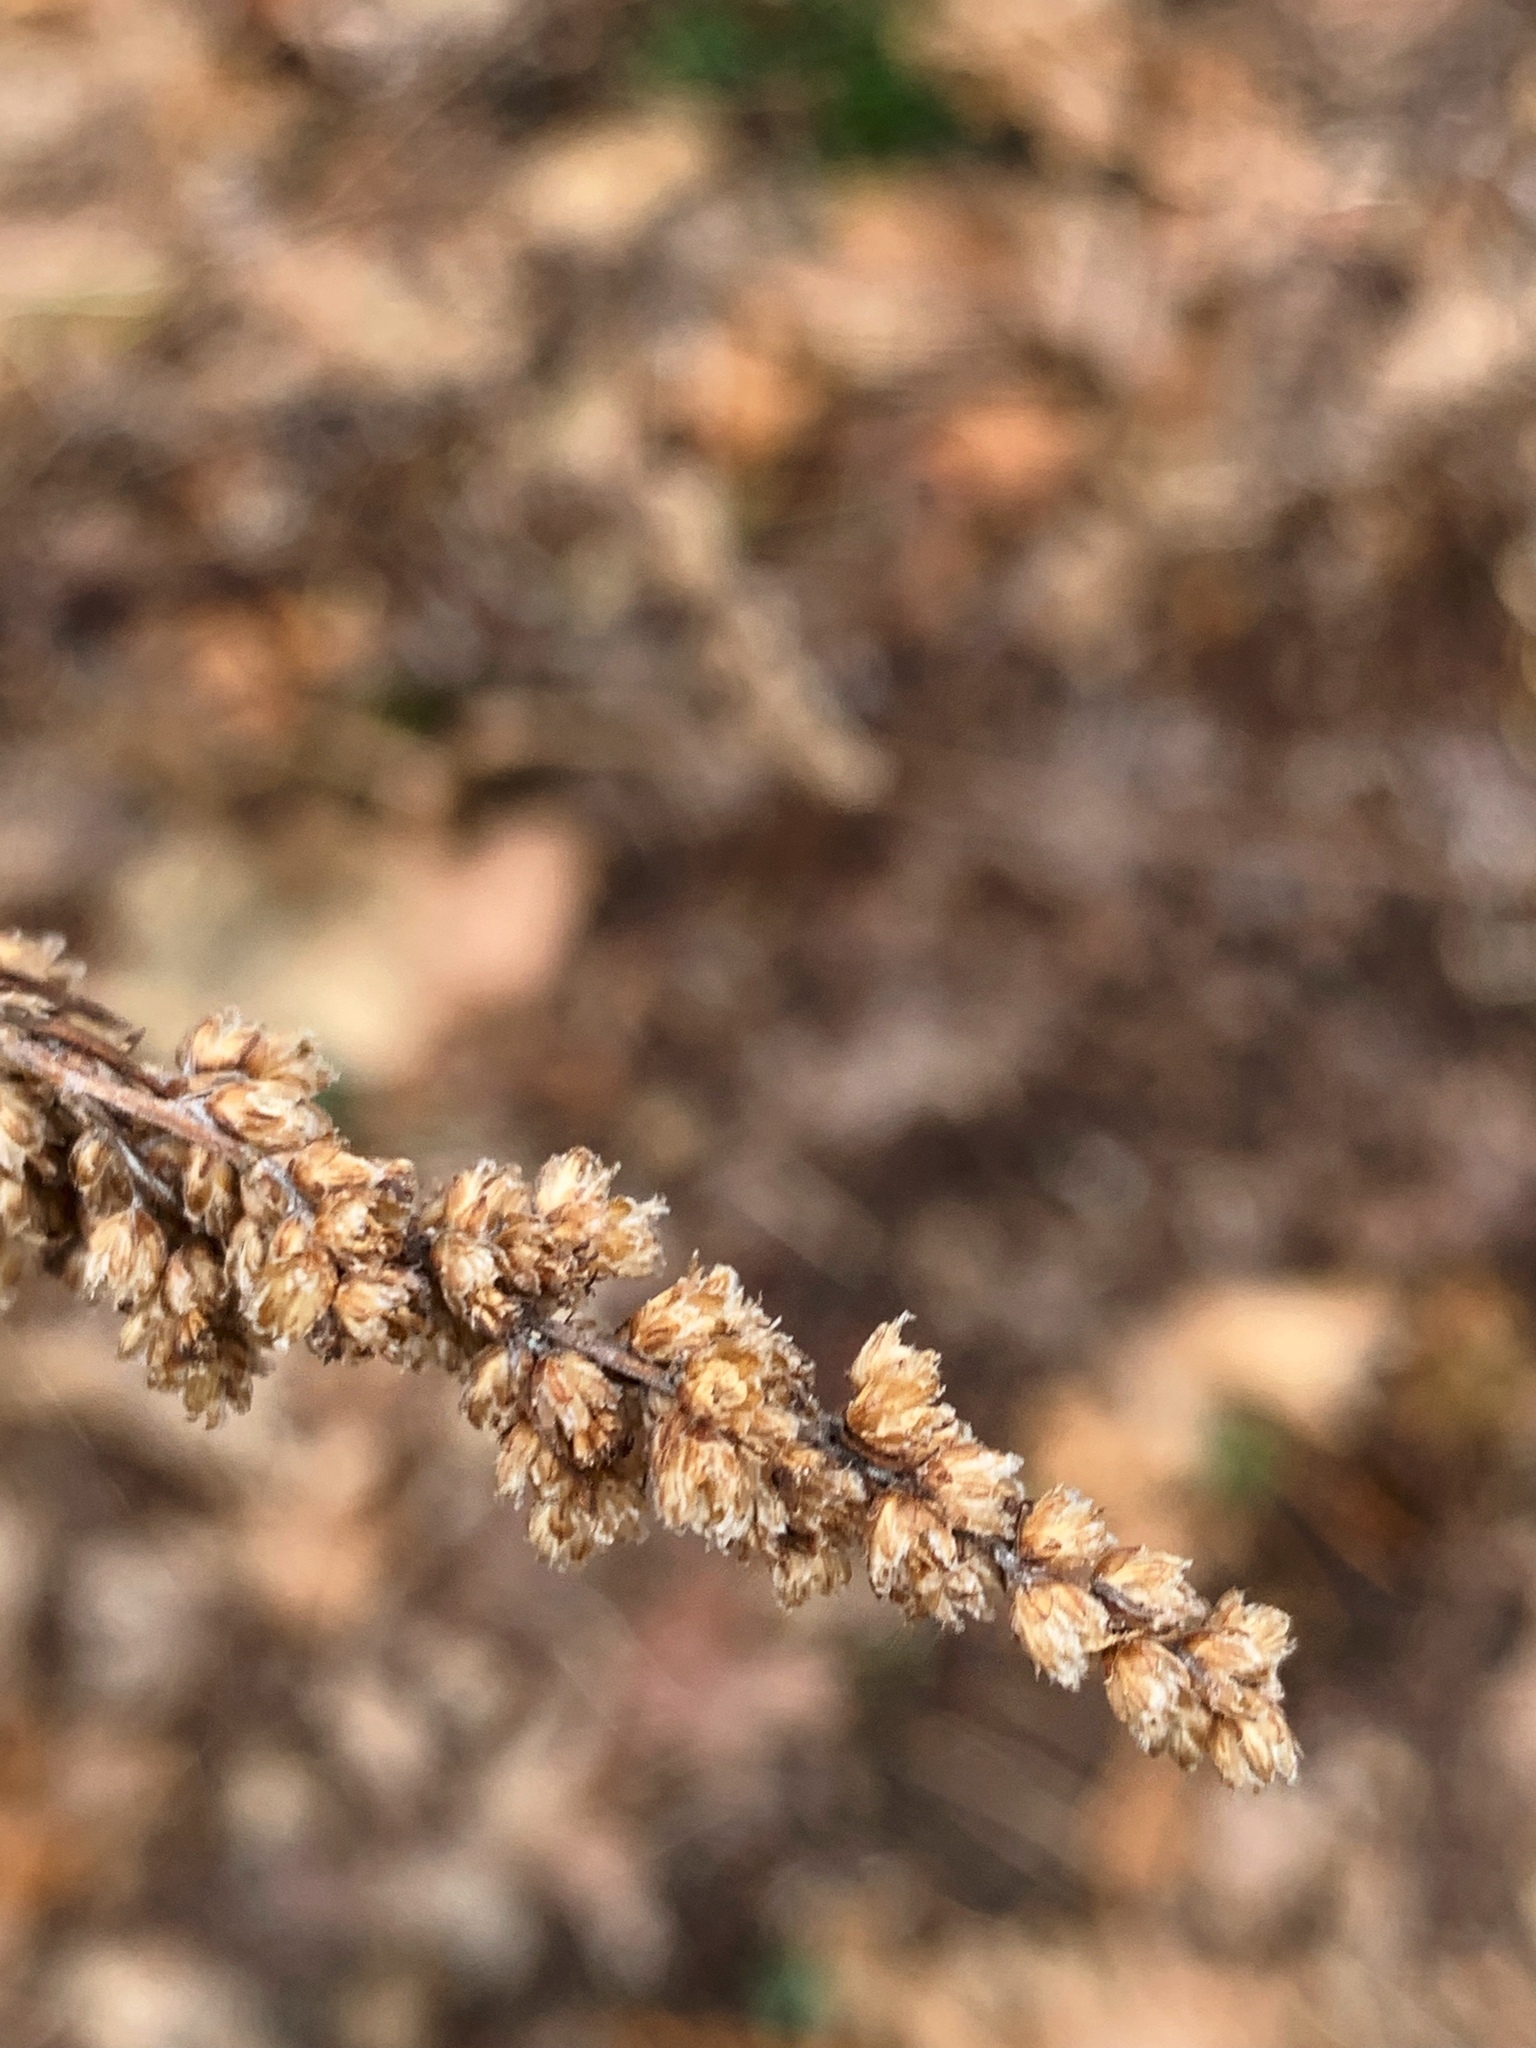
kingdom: Plantae
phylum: Tracheophyta
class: Magnoliopsida
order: Asterales
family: Asteraceae
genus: Artemisia
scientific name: Artemisia vulgaris
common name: Mugwort
